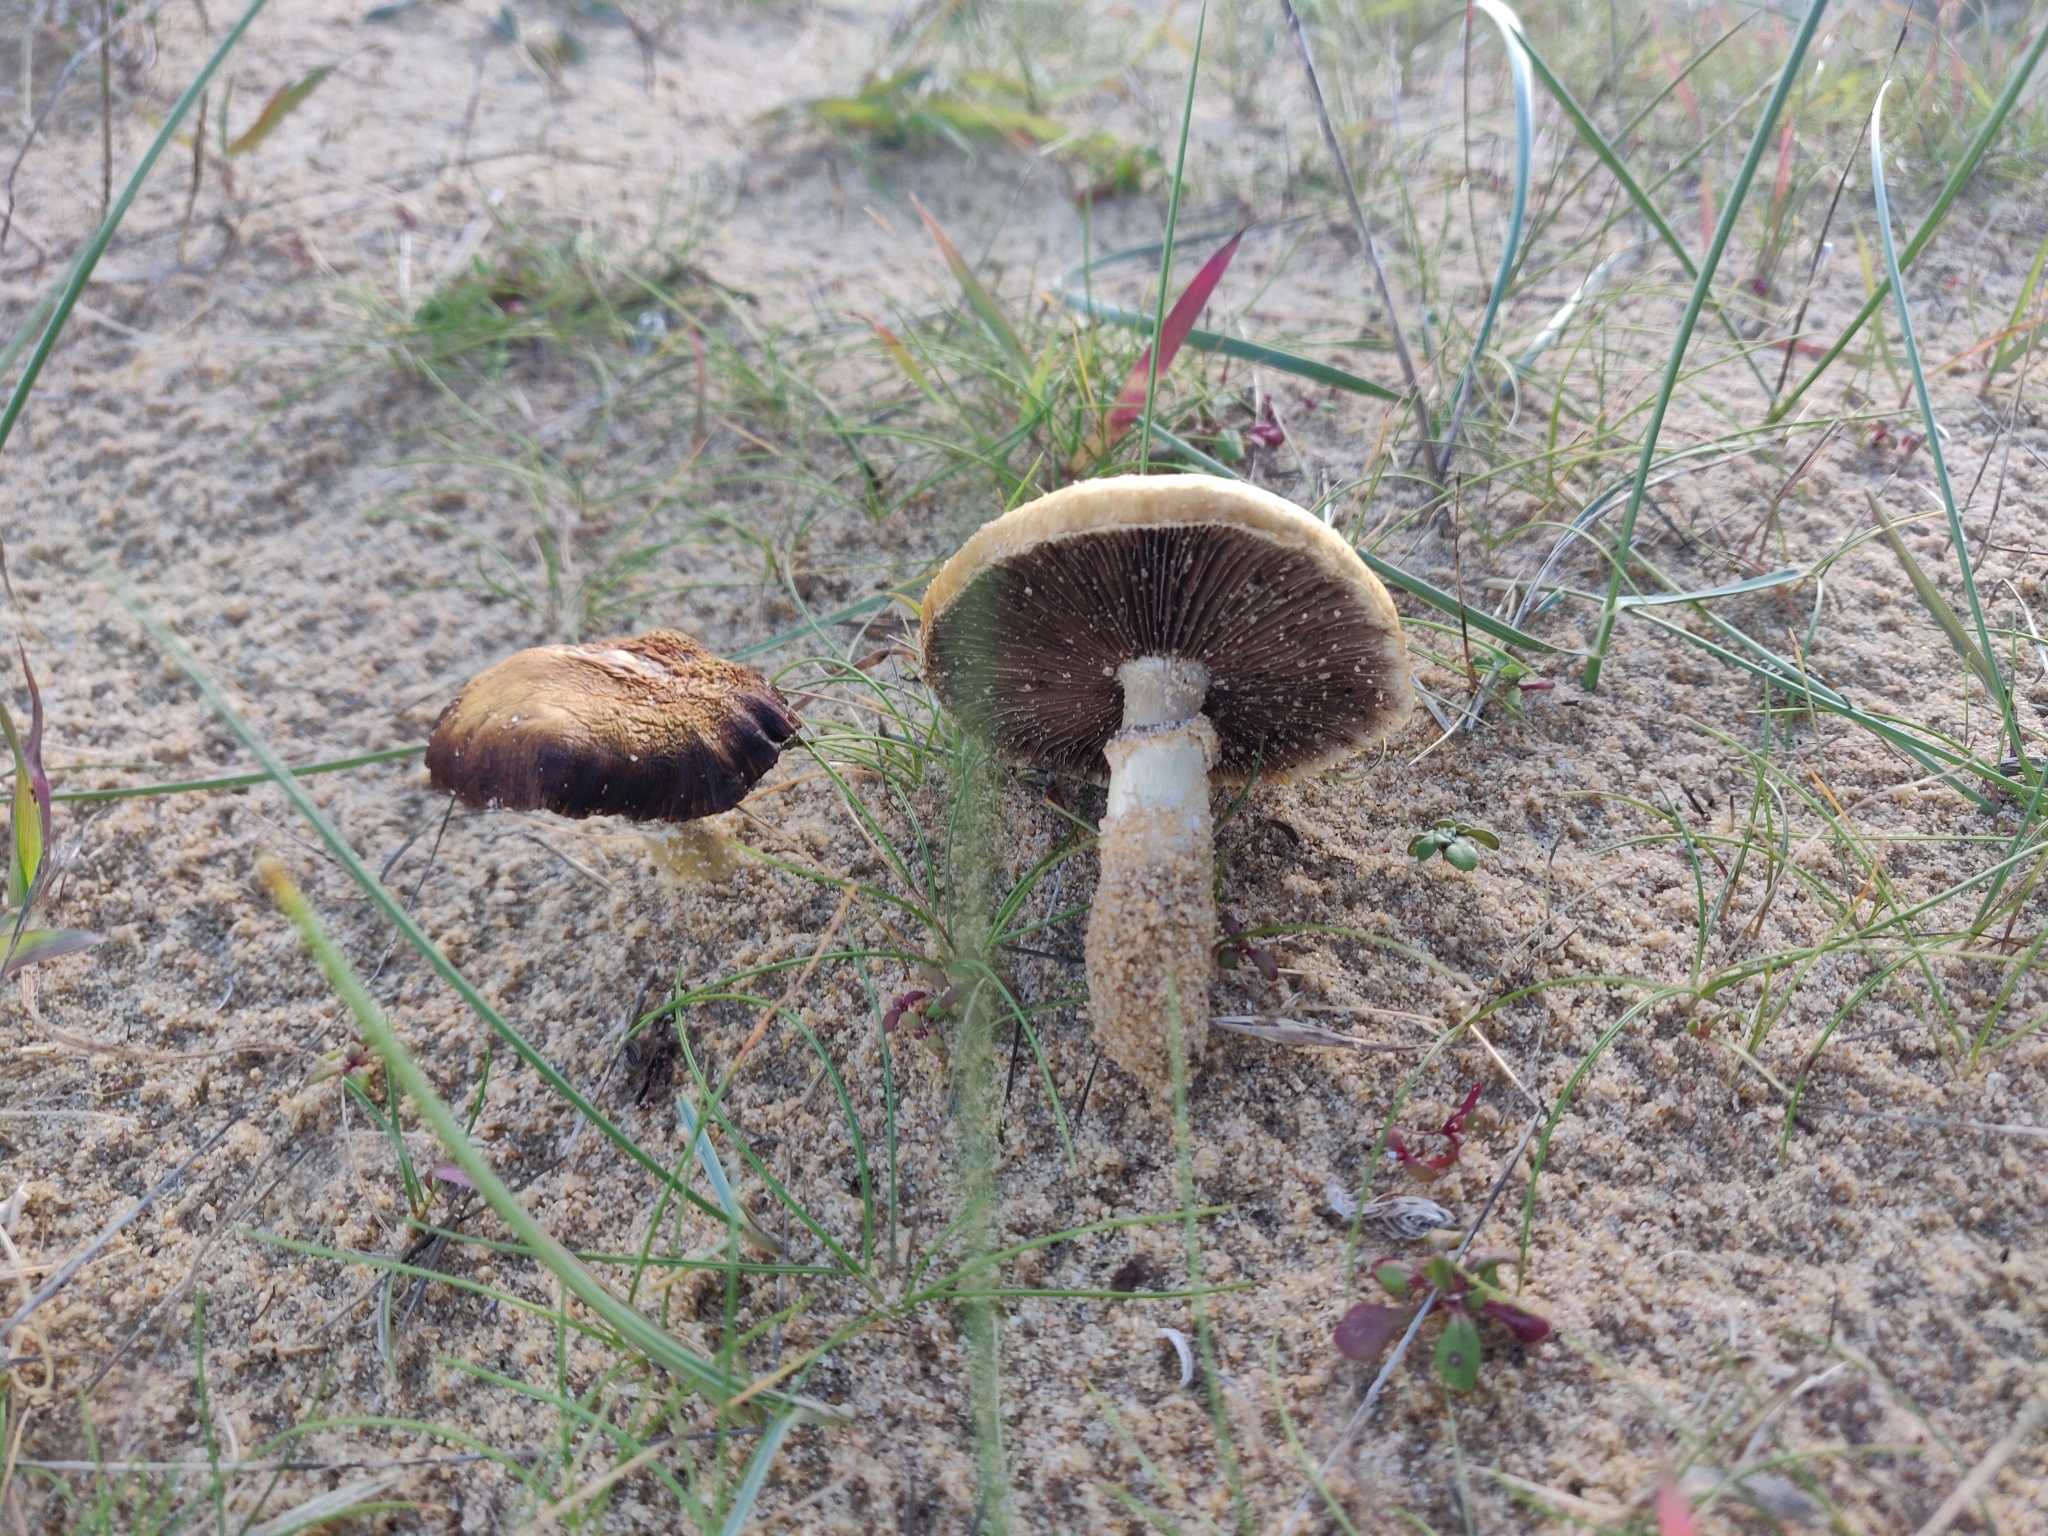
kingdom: Fungi
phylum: Basidiomycota
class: Agaricomycetes
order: Agaricales
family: Strophariaceae
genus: Stropharia
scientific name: Stropharia halophila
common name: Dune roundhead
